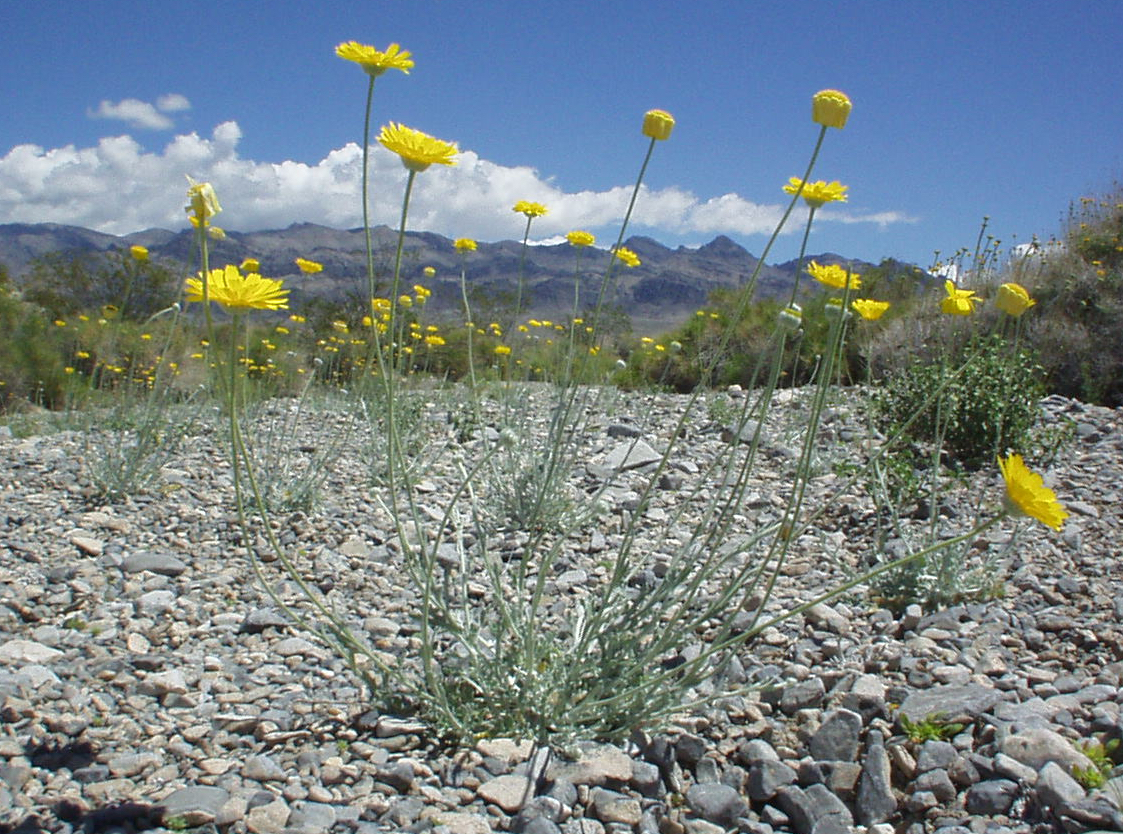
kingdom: Plantae
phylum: Tracheophyta
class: Magnoliopsida
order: Asterales
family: Asteraceae
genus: Baileya
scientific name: Baileya multiradiata
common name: Desert-marigold
